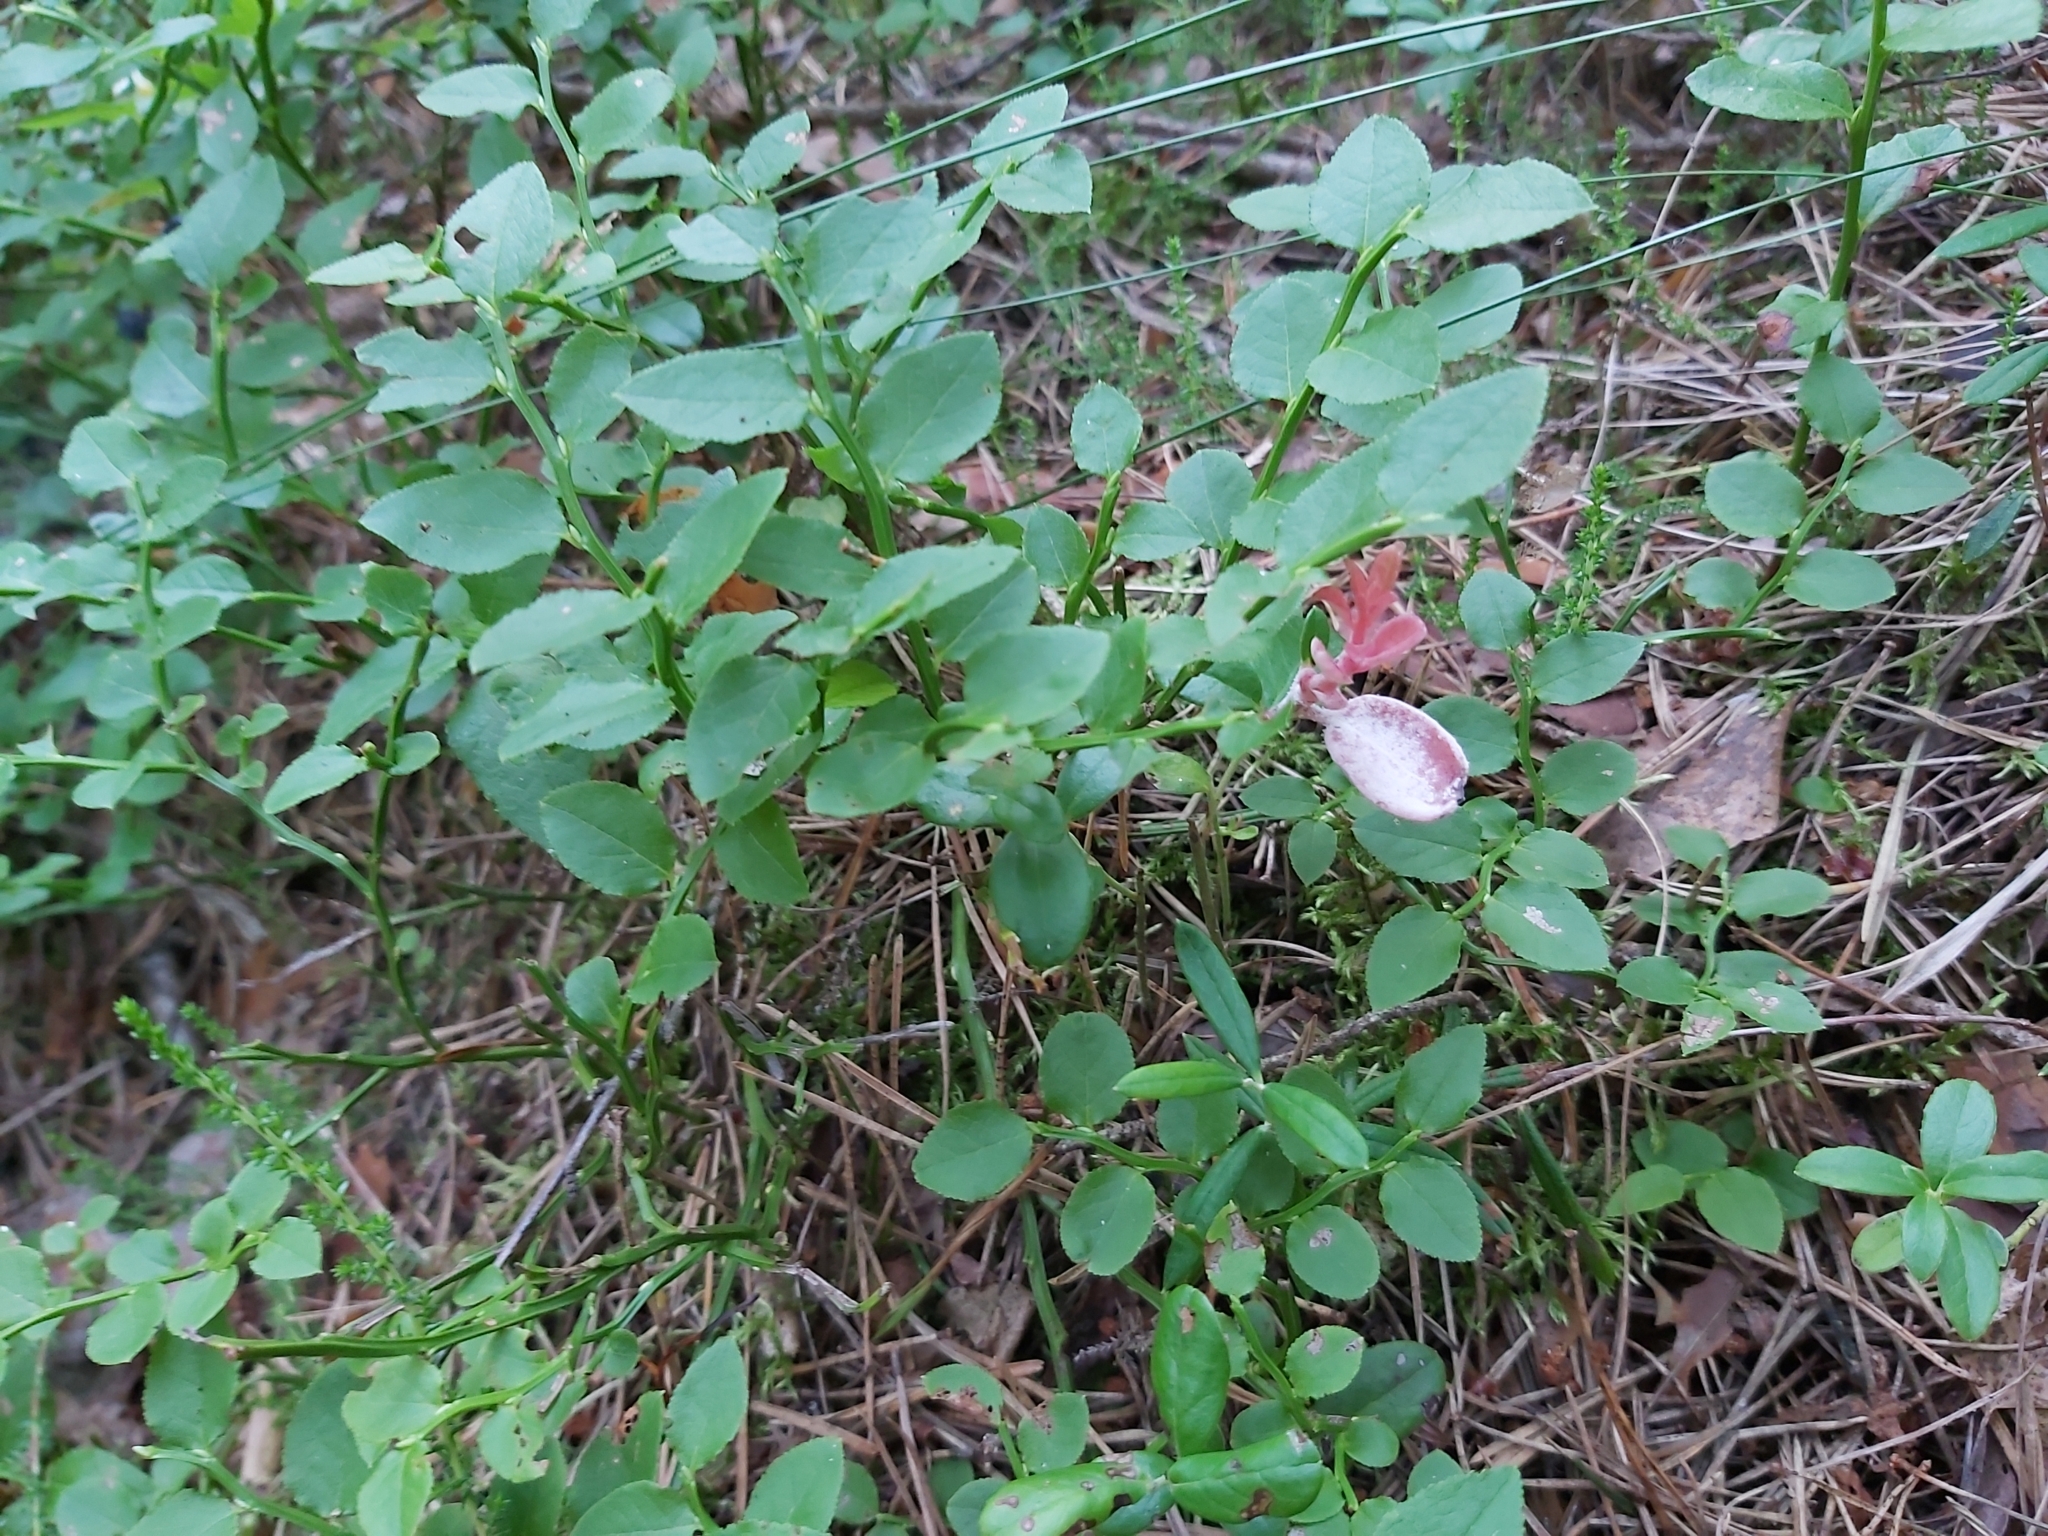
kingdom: Fungi
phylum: Basidiomycota
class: Exobasidiomycetes
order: Exobasidiales
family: Exobasidiaceae
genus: Exobasidium
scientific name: Exobasidium vaccinii
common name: Cowberry redleaf
